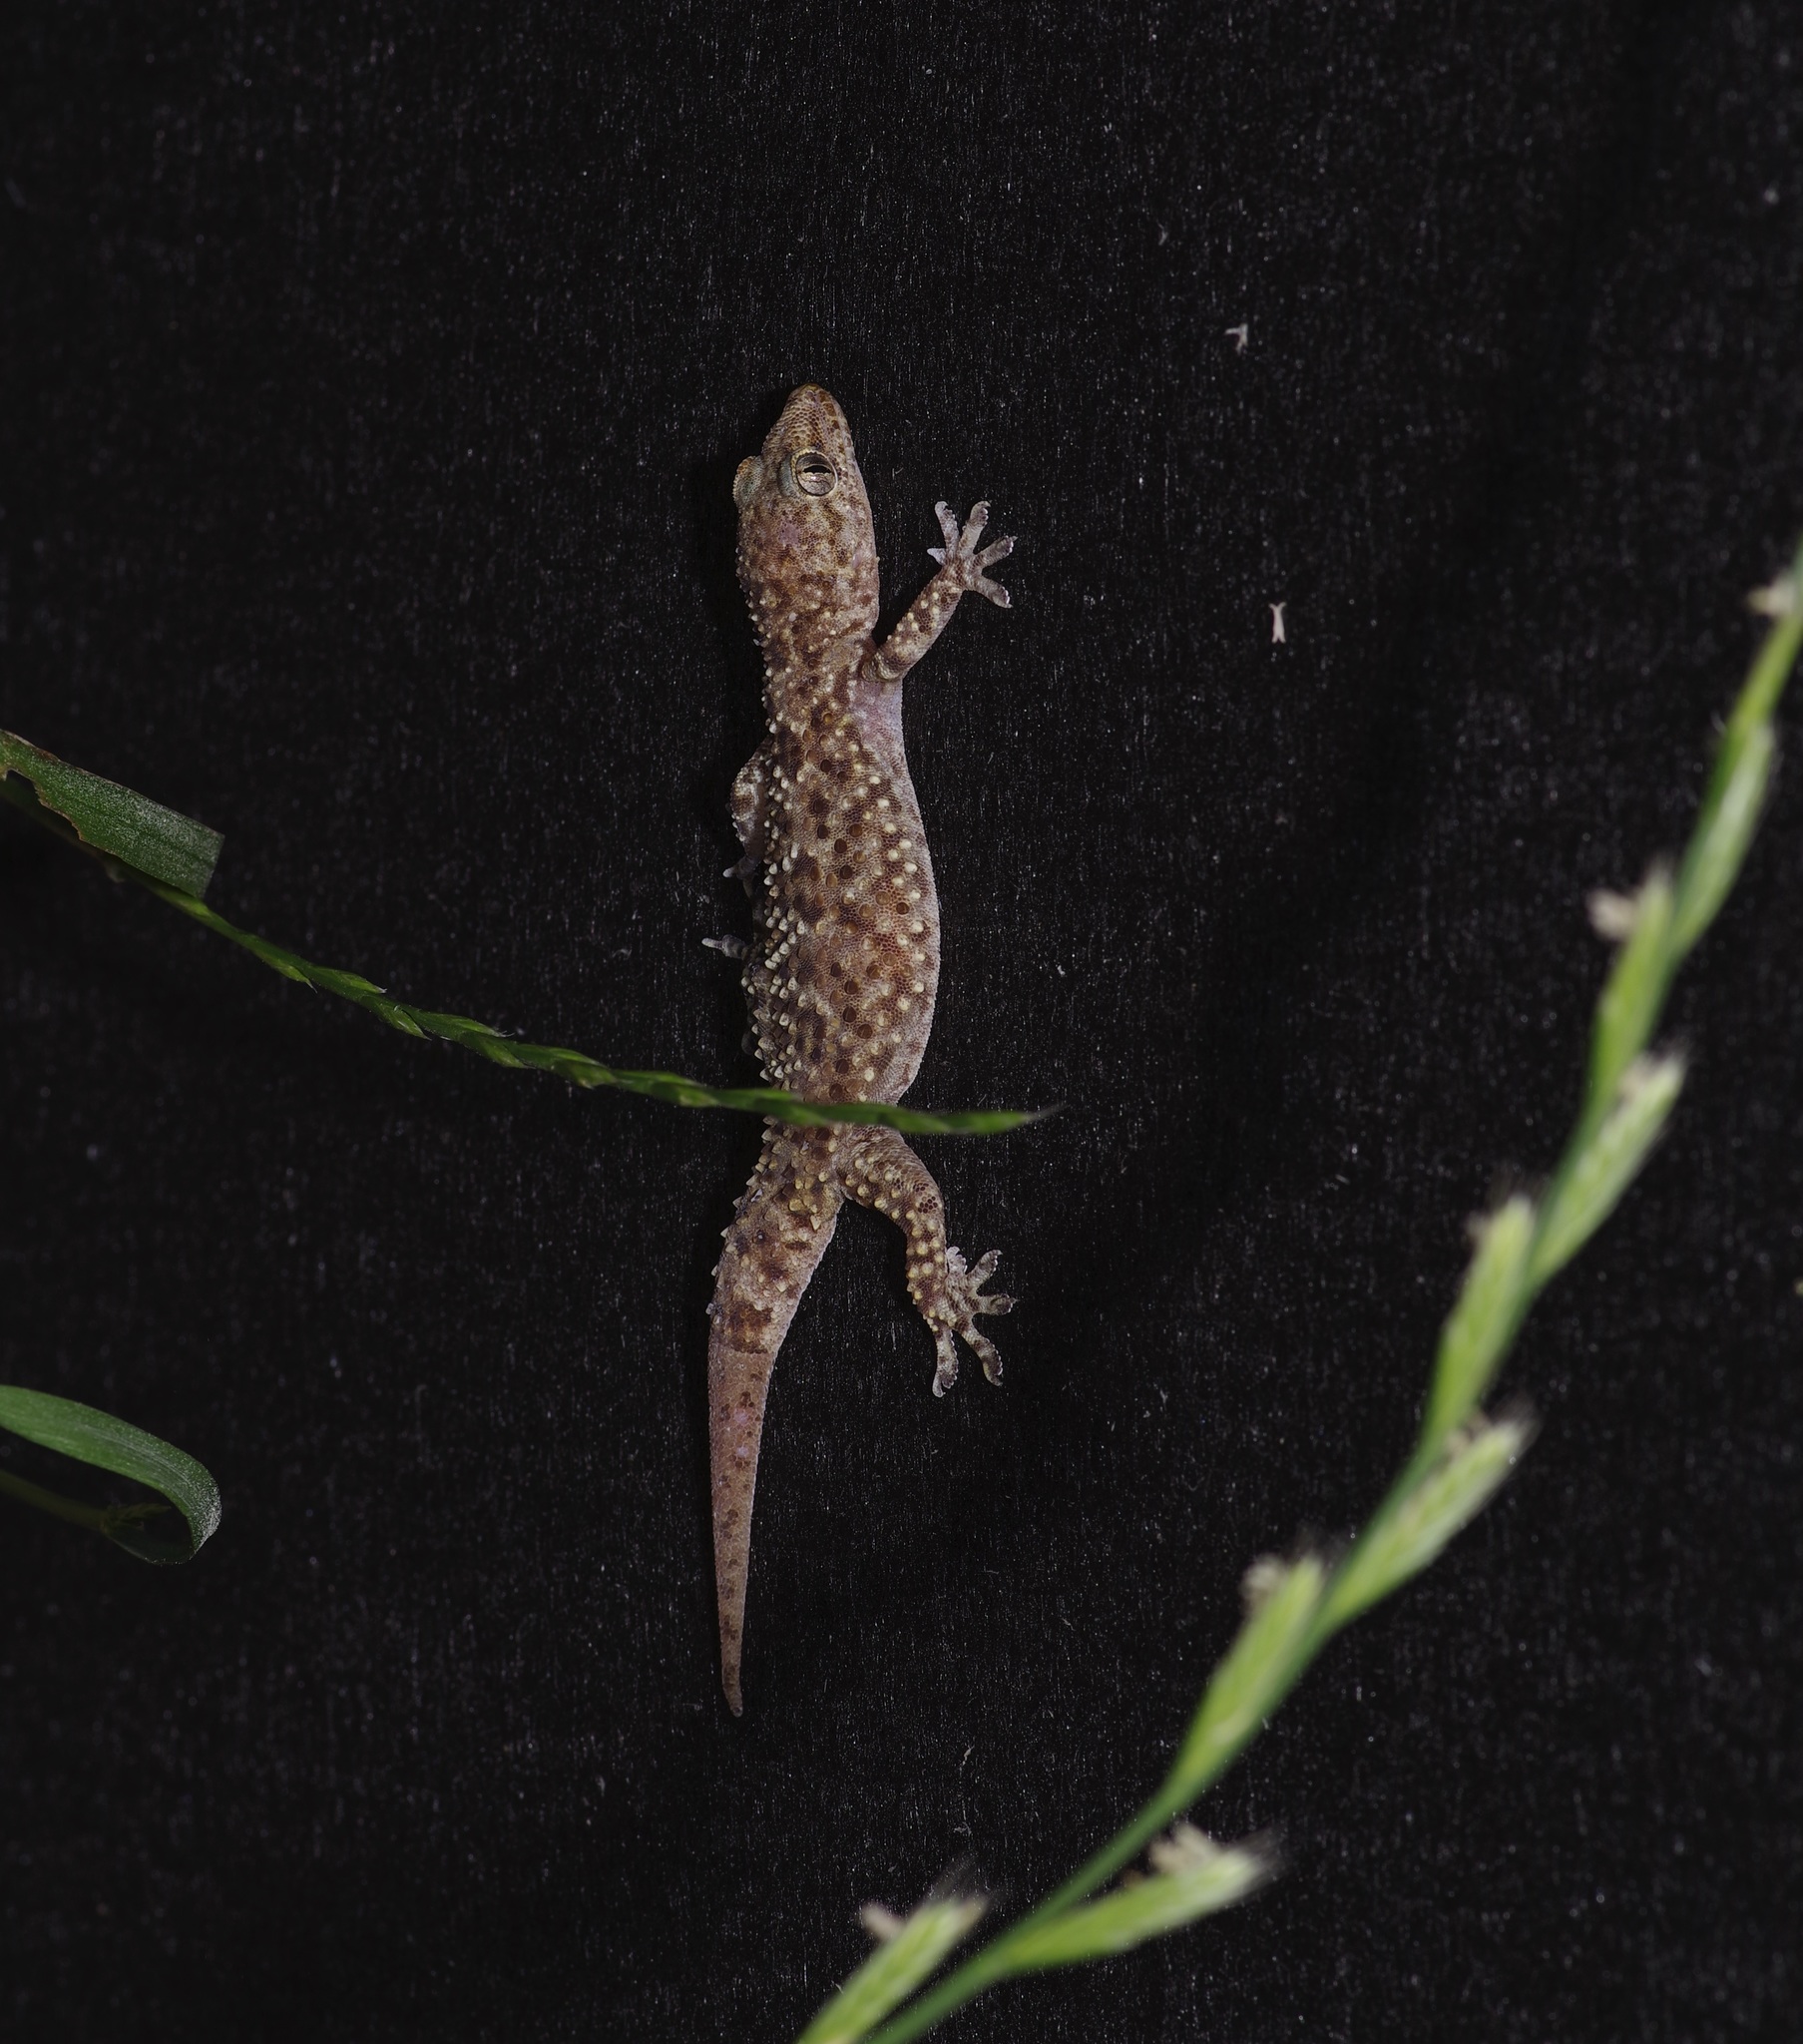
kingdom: Animalia
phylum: Chordata
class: Squamata
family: Gekkonidae
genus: Hemidactylus
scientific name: Hemidactylus turcicus
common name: Turkish gecko
